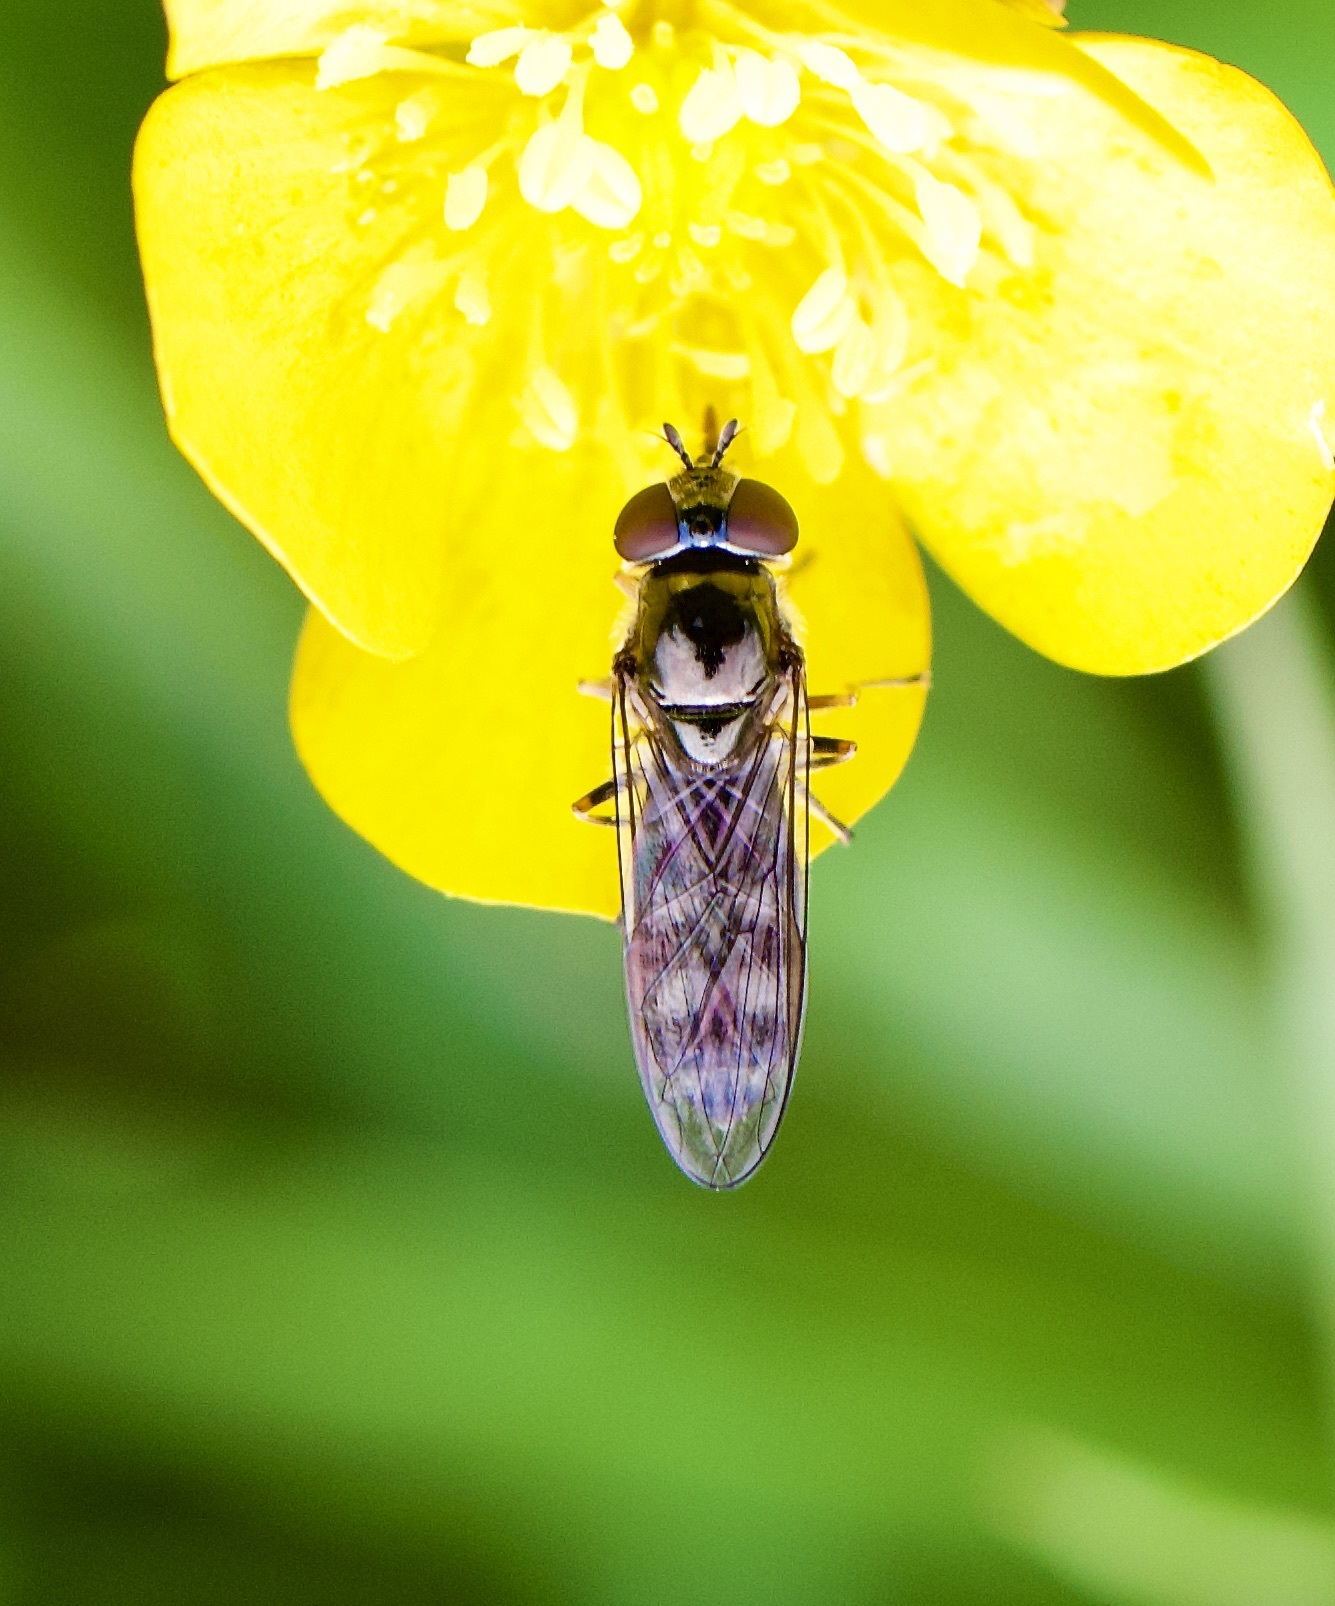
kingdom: Animalia
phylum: Arthropoda
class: Insecta
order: Diptera
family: Syrphidae
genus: Platycheirus
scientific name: Platycheirus albimanus
